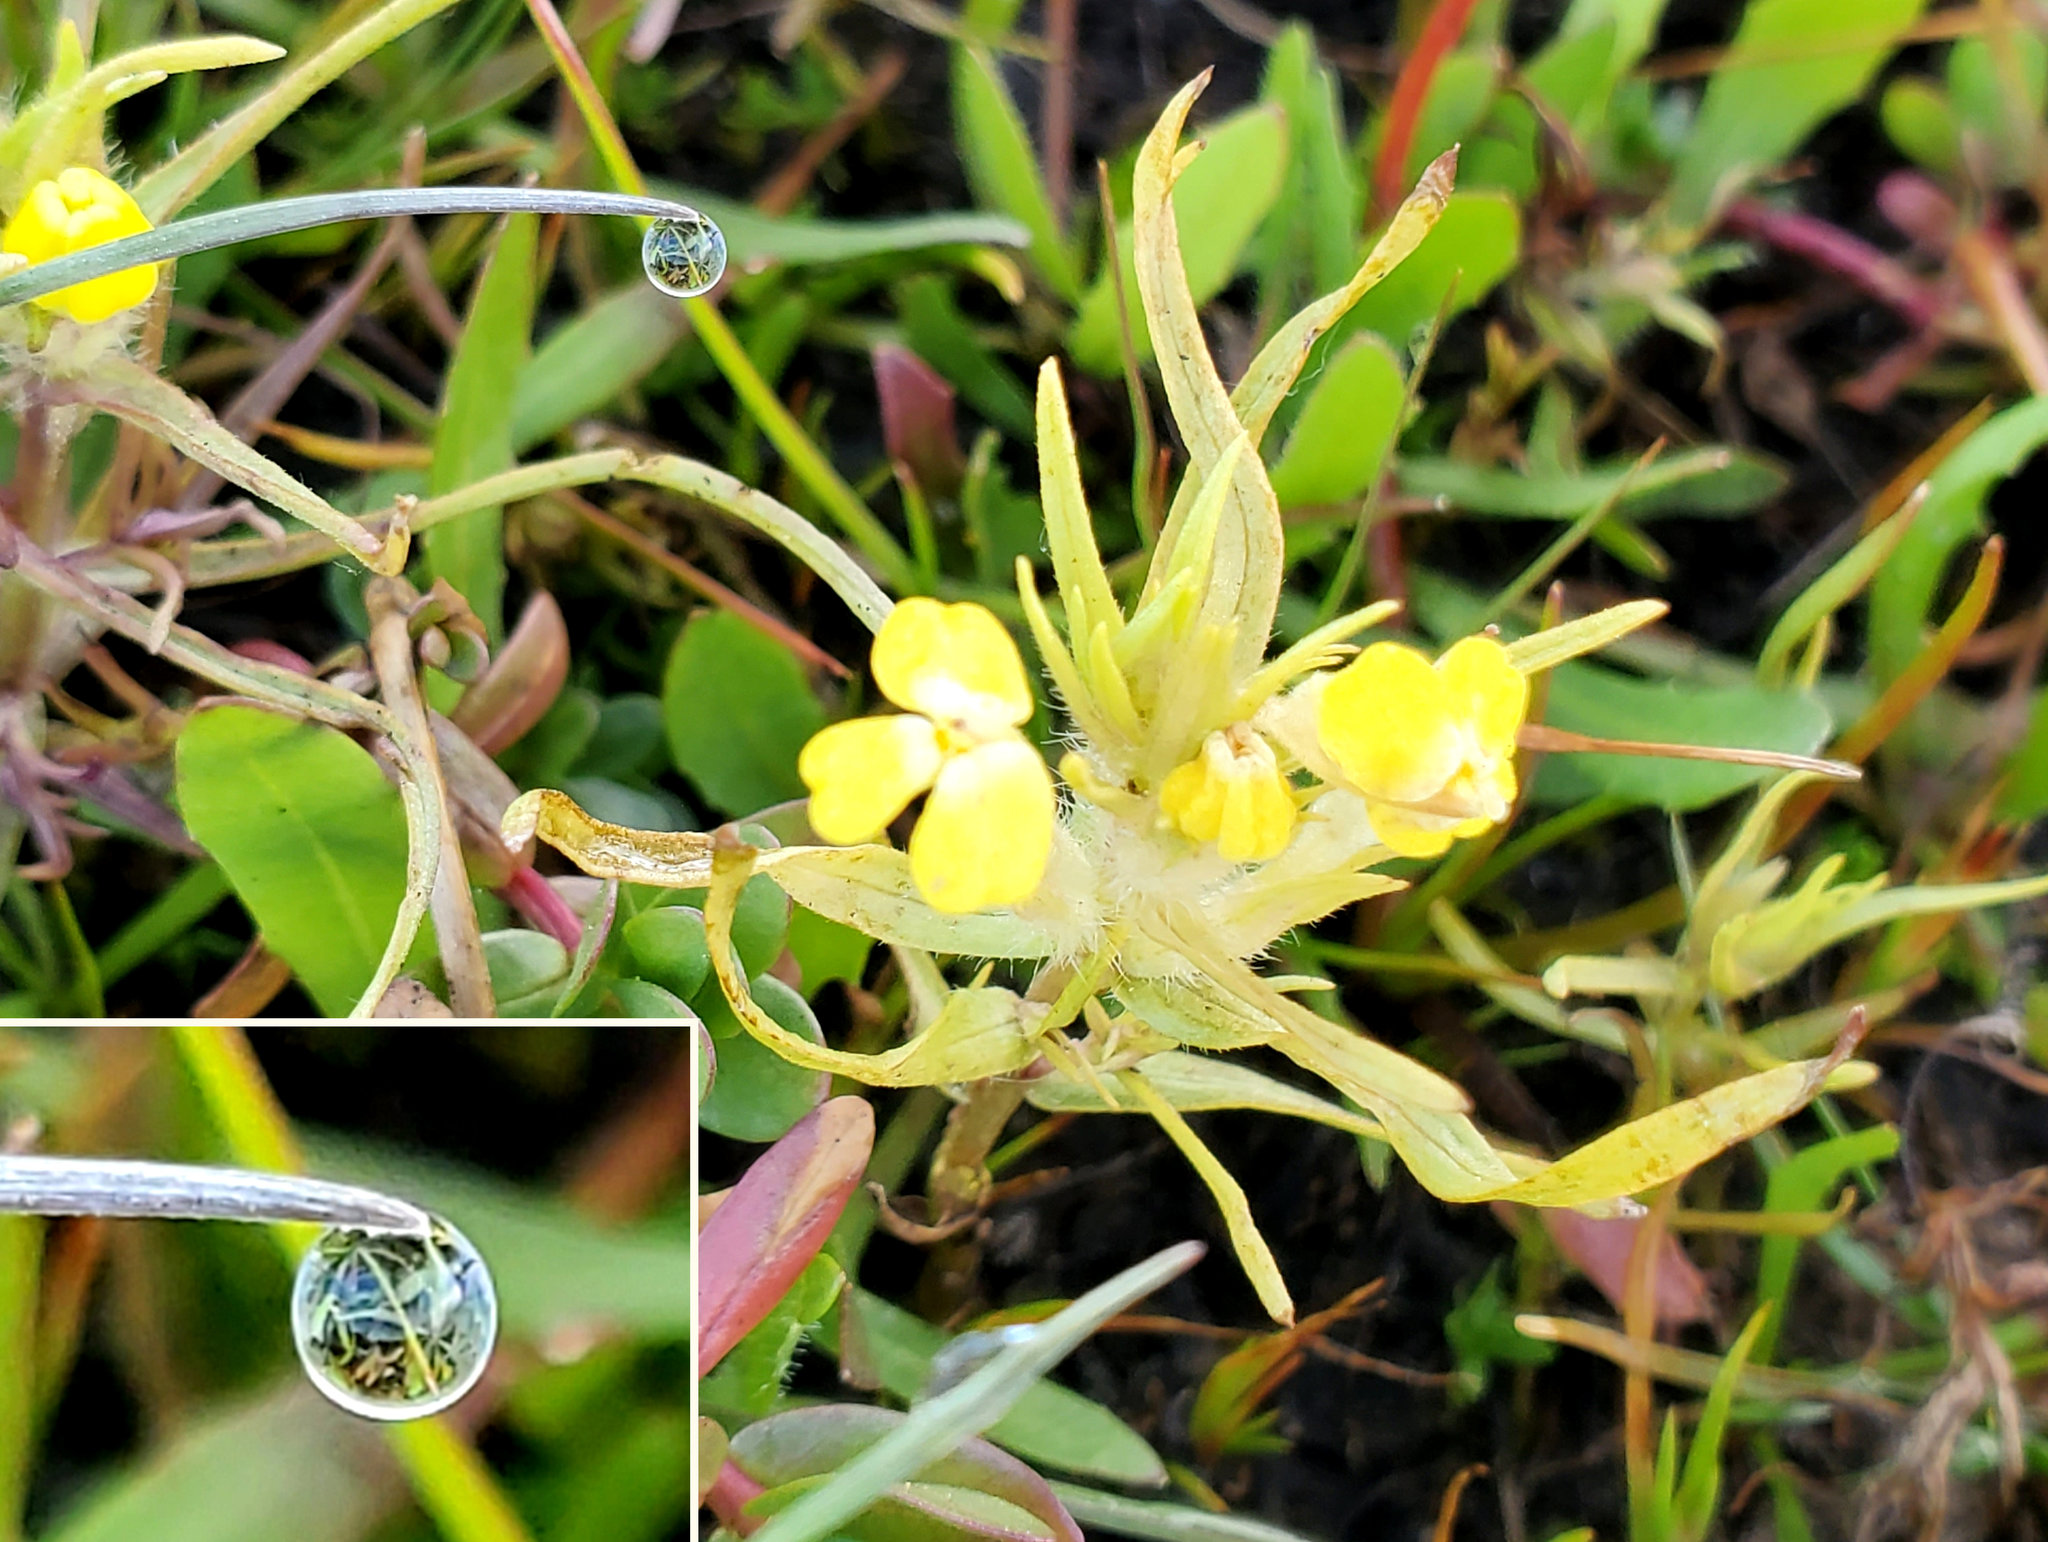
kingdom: Plantae
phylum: Tracheophyta
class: Magnoliopsida
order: Lamiales
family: Orobanchaceae
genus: Castilleja
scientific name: Castilleja campestris
